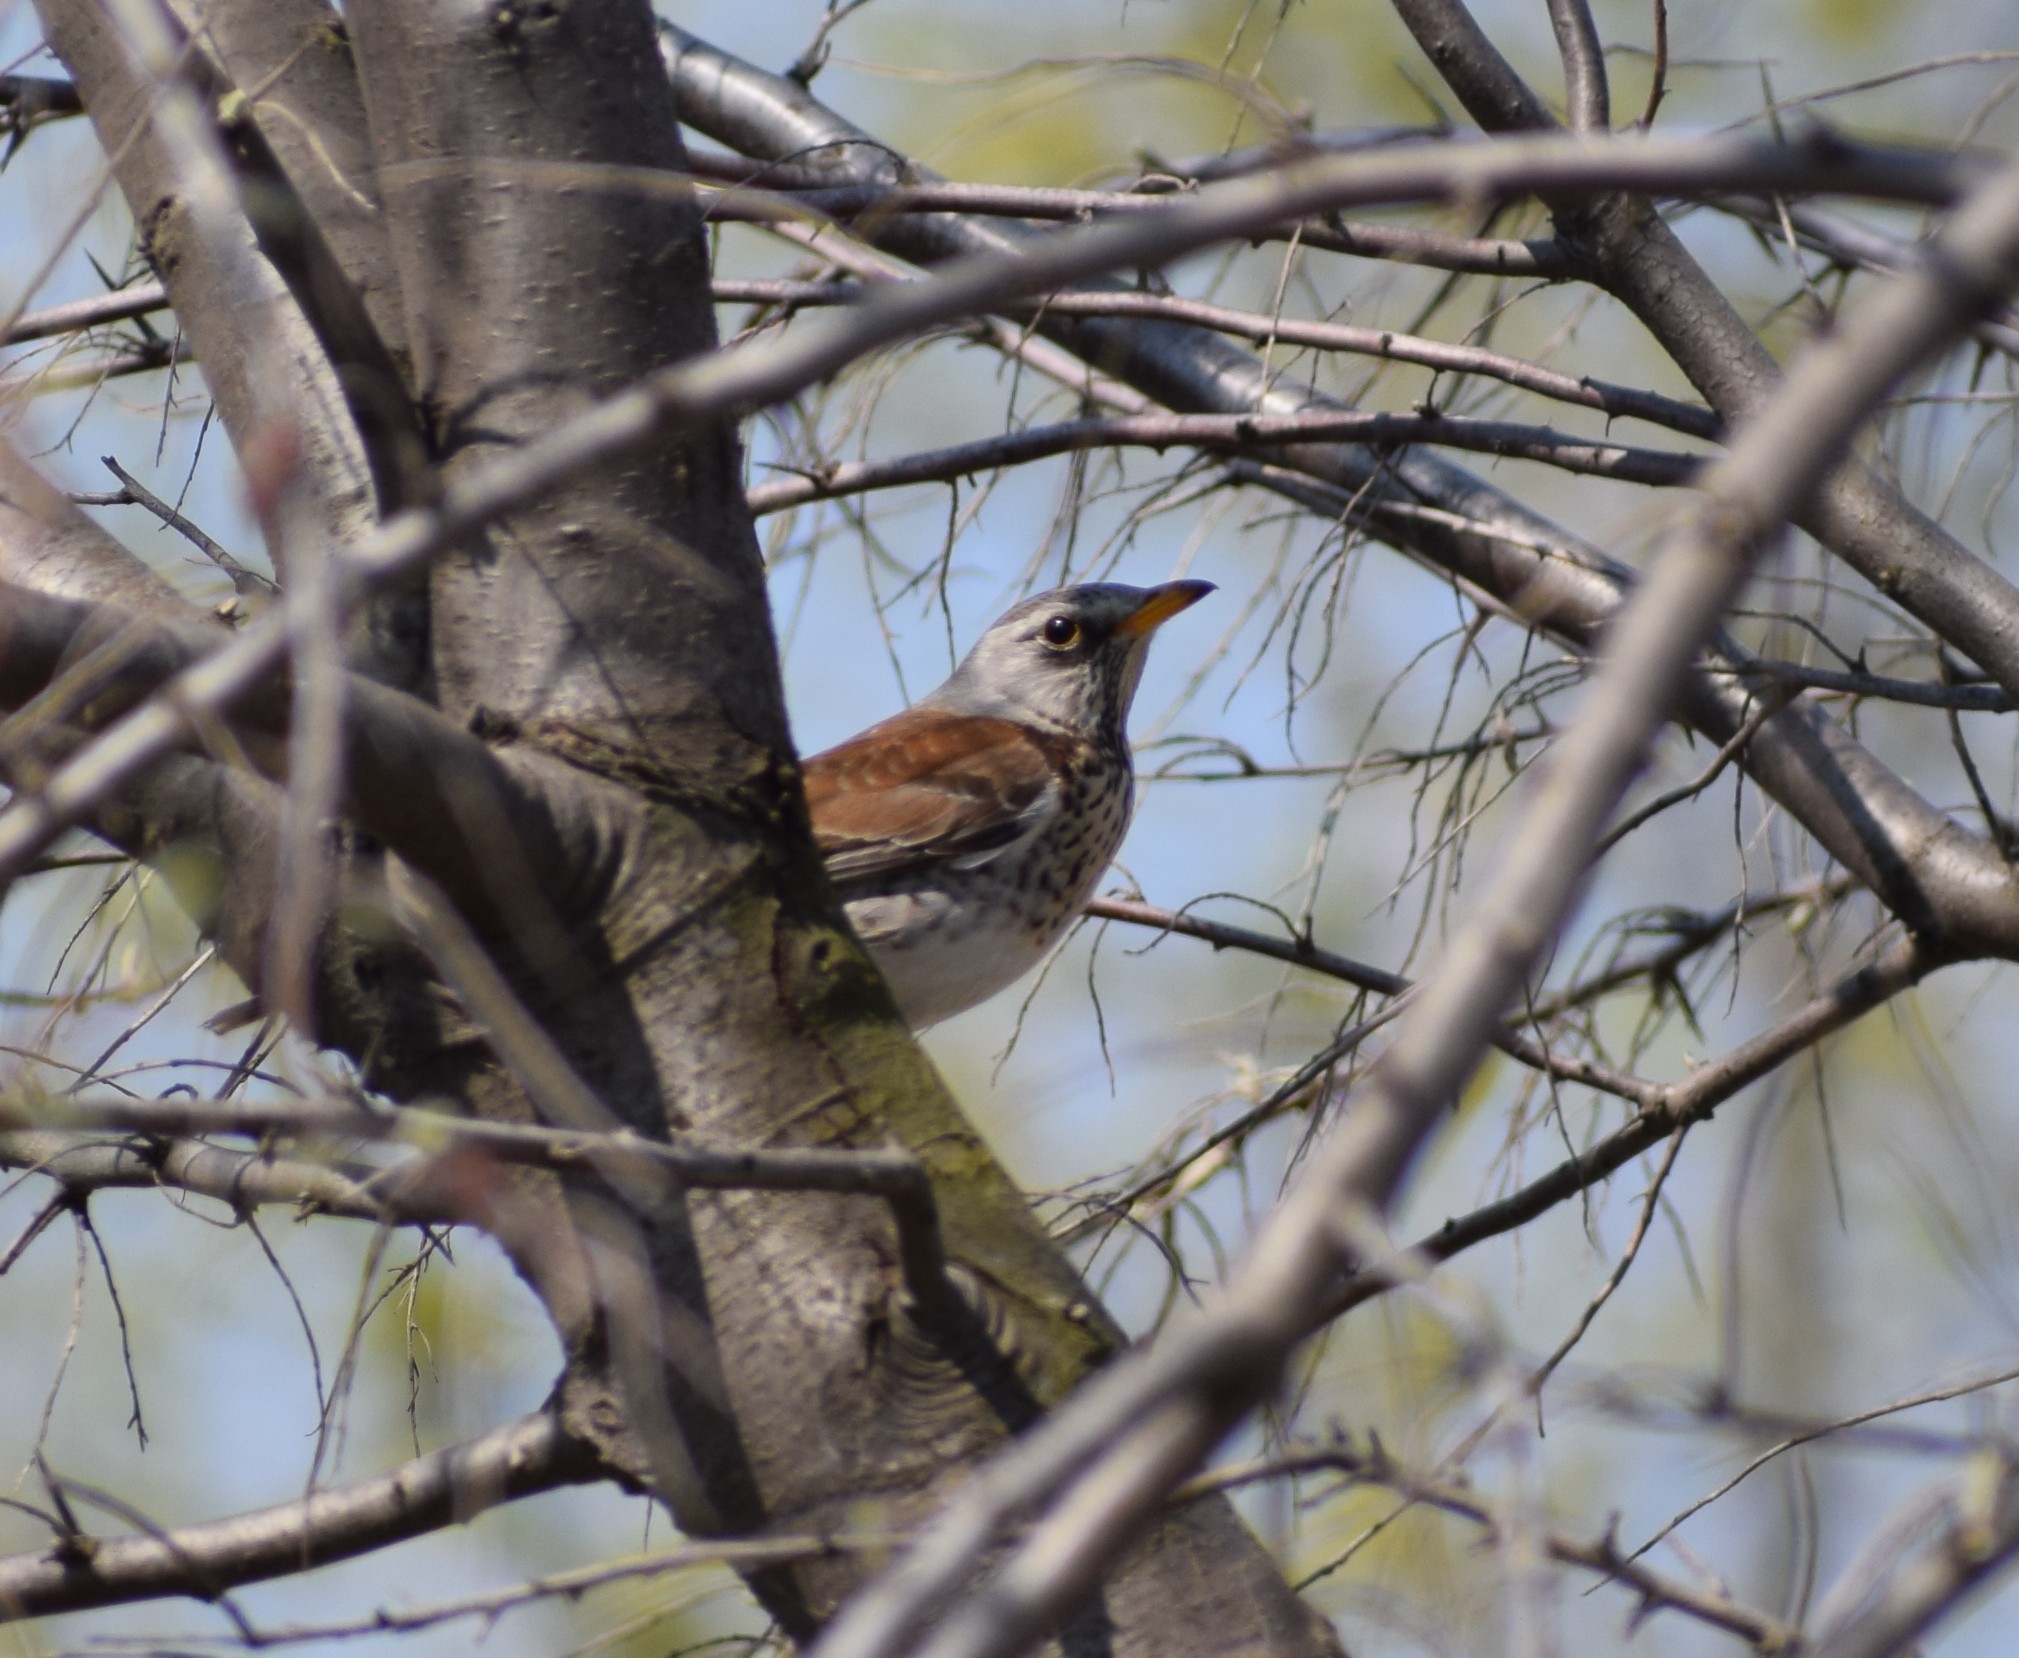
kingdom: Animalia
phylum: Chordata
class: Aves
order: Passeriformes
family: Turdidae
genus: Turdus
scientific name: Turdus pilaris
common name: Fieldfare
